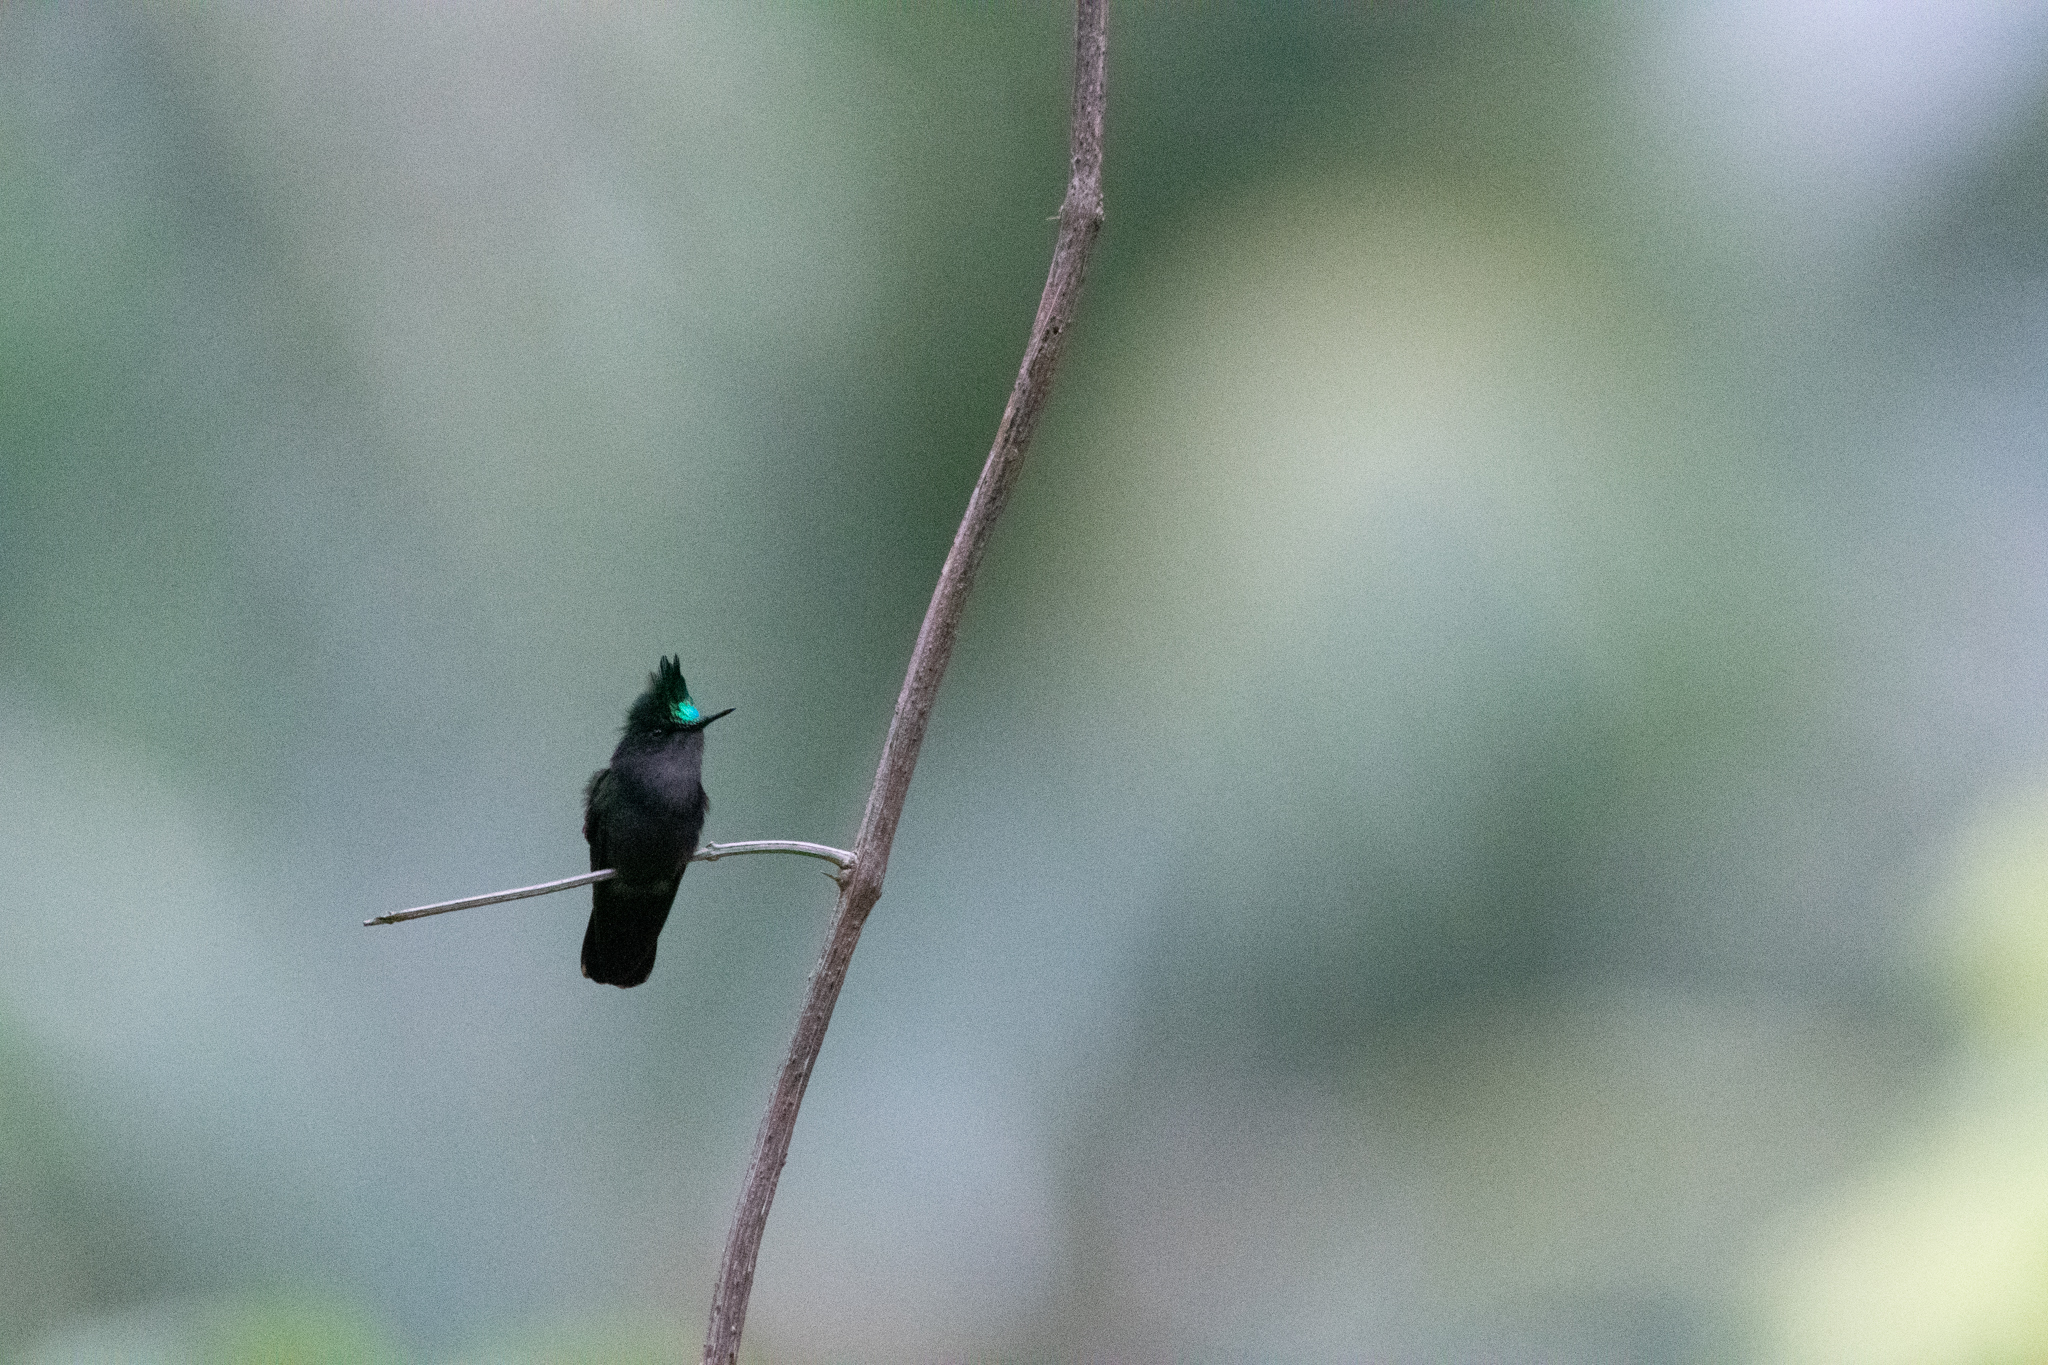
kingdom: Animalia
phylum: Chordata
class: Aves
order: Apodiformes
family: Trochilidae
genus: Orthorhyncus
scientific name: Orthorhyncus cristatus
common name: Antillean crested hummingbird
